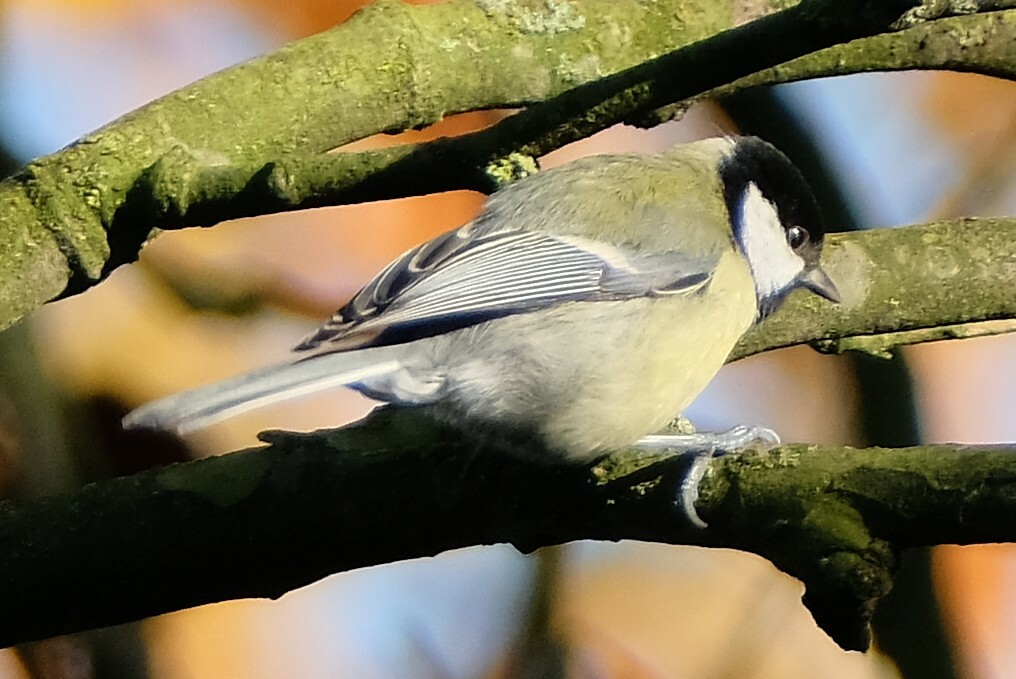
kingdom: Animalia
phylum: Chordata
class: Aves
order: Passeriformes
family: Paridae
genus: Parus
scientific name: Parus major
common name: Great tit
